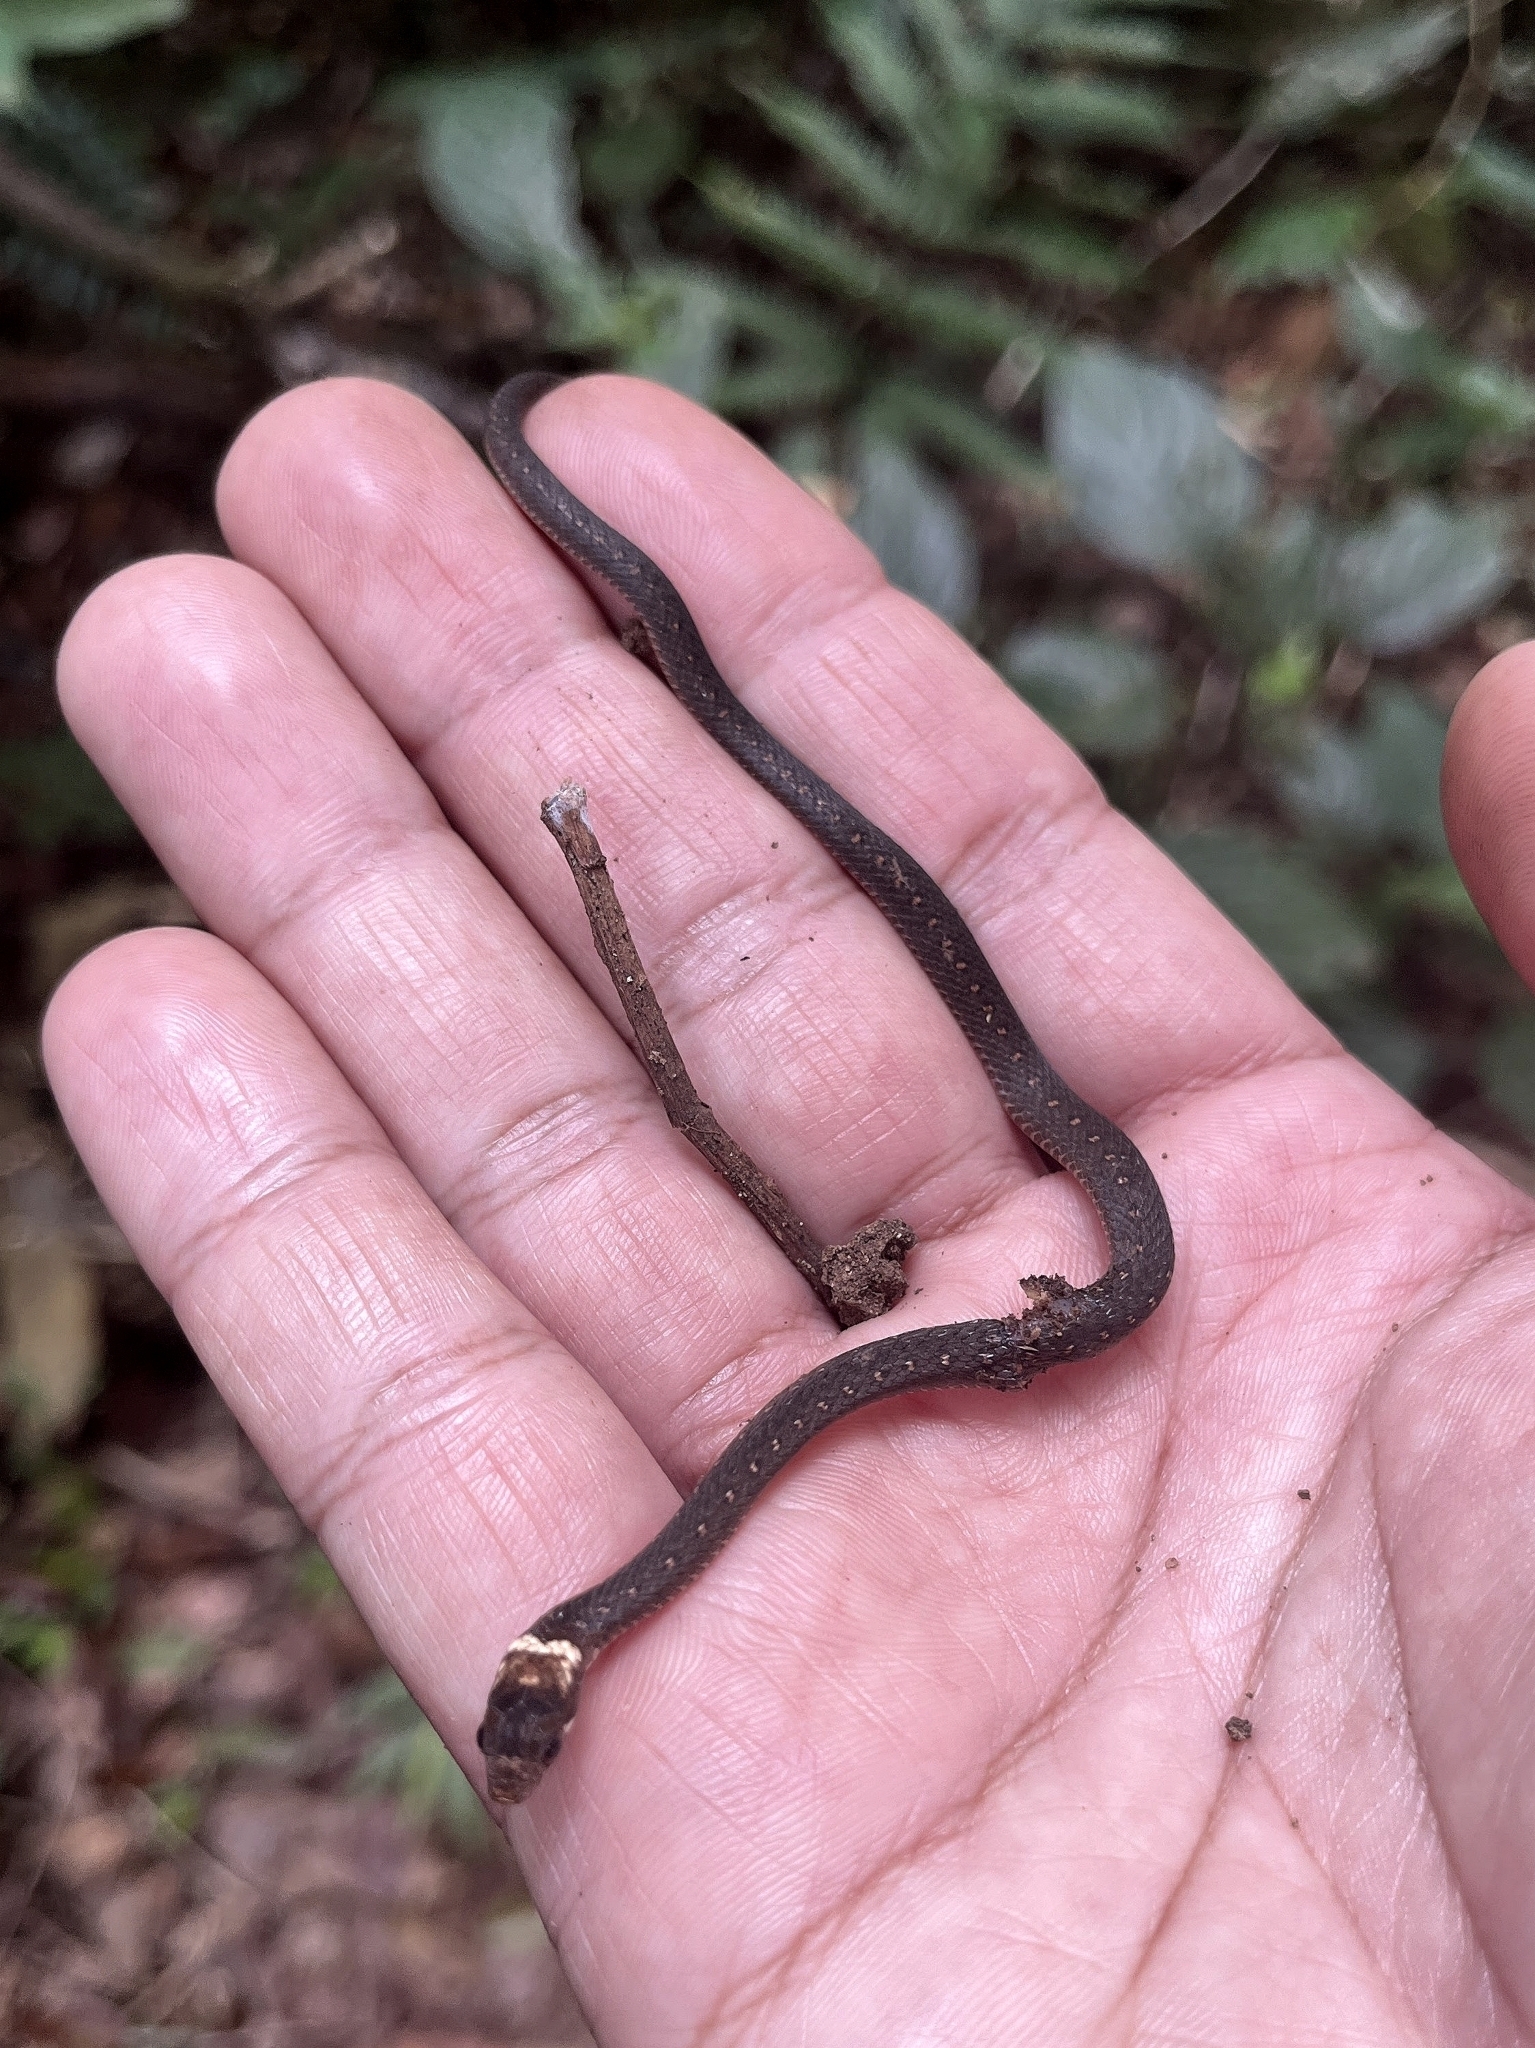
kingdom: Animalia
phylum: Chordata
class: Squamata
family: Colubridae
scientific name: Colubridae
